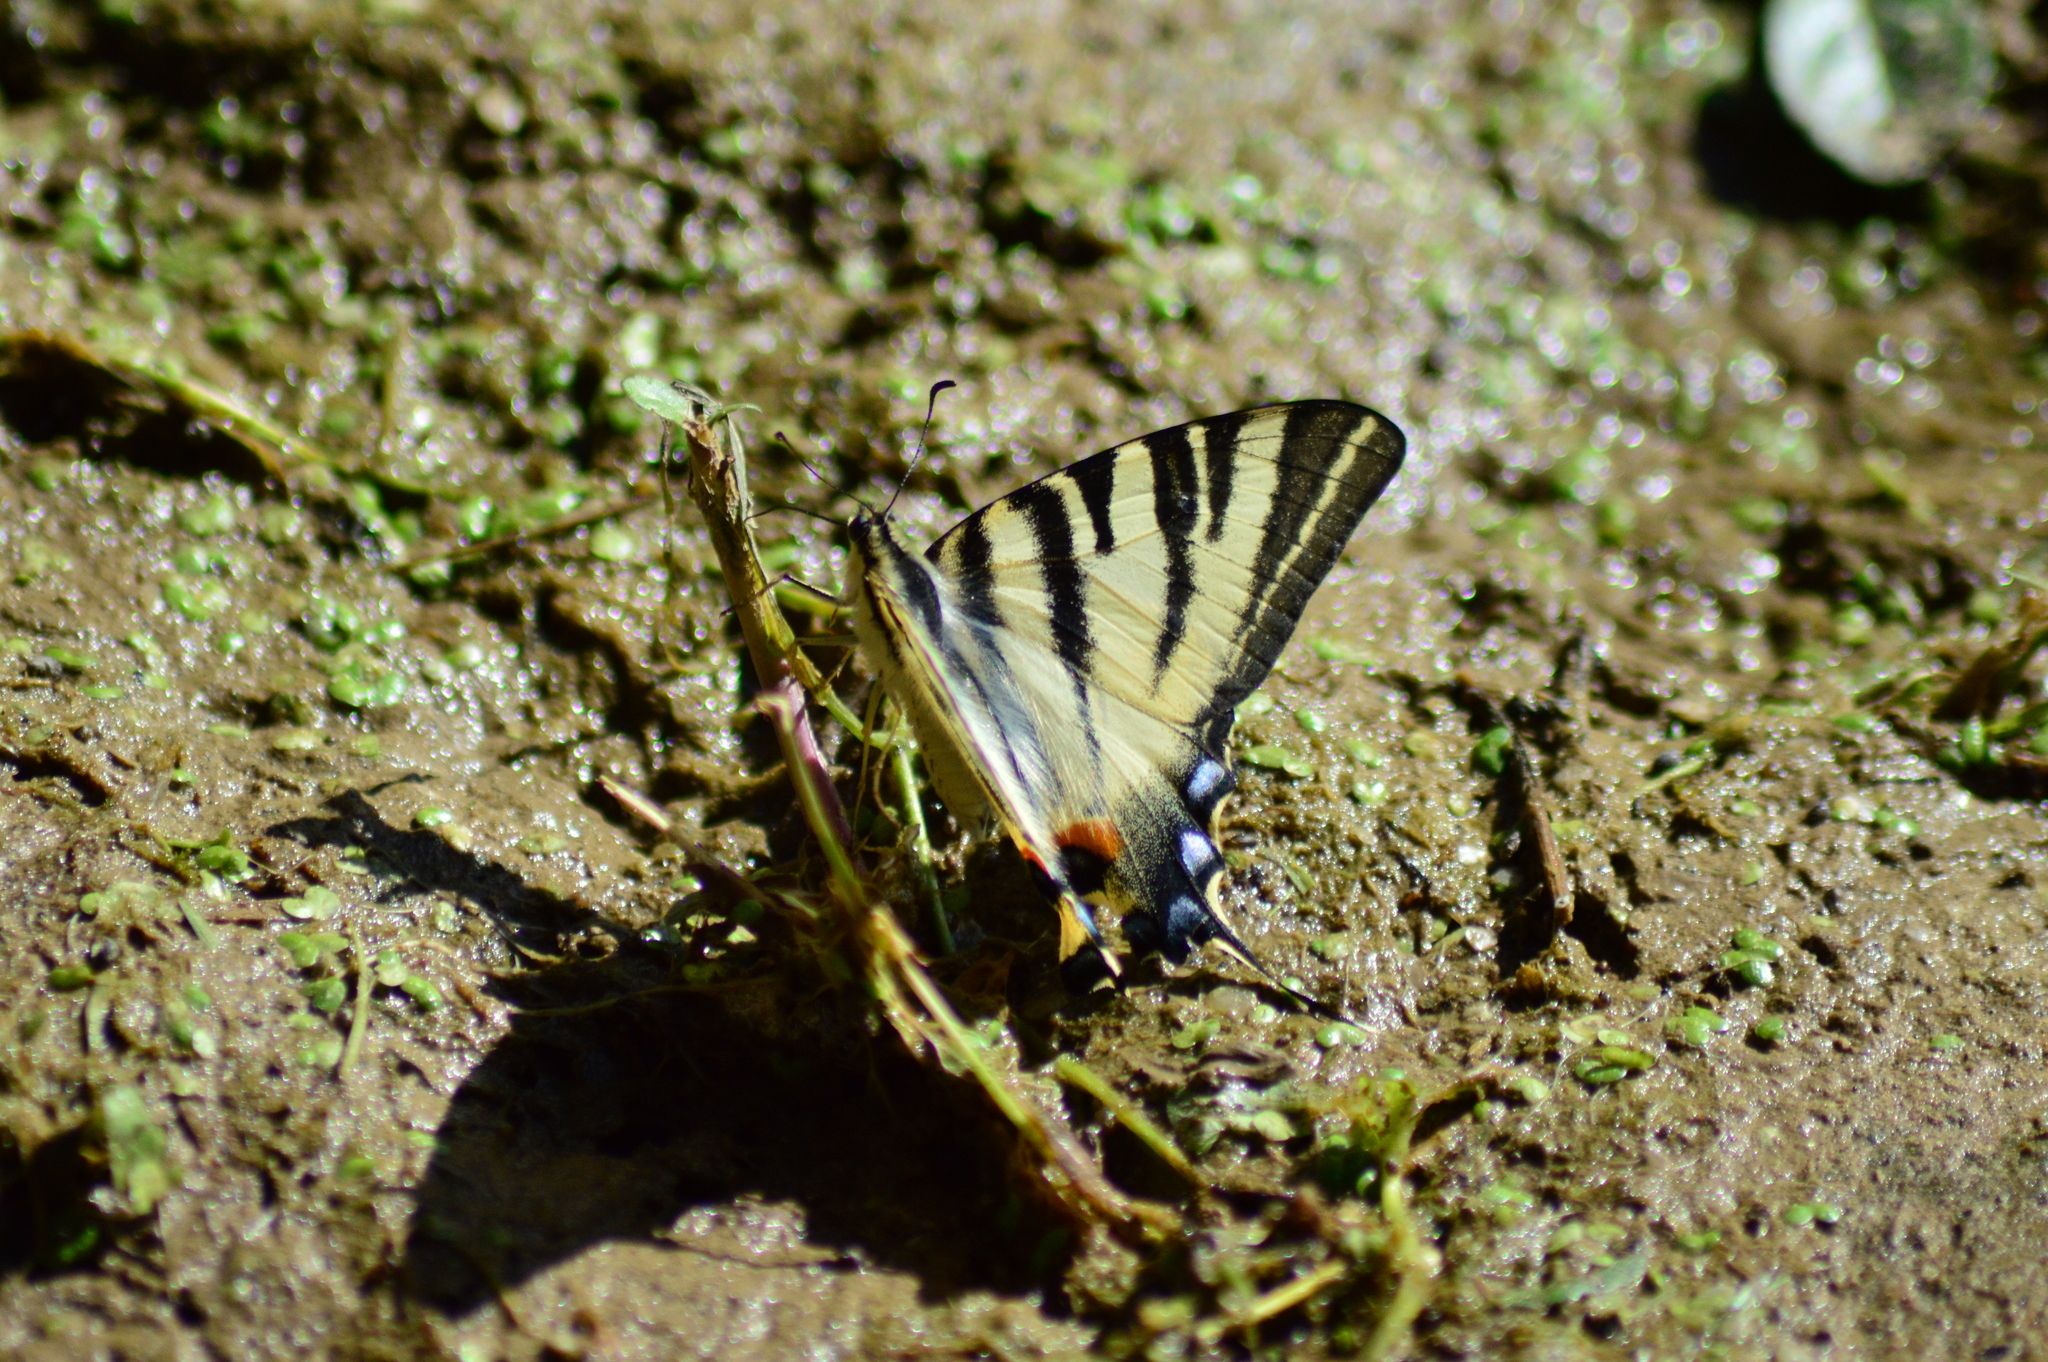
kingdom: Animalia
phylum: Arthropoda
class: Insecta
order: Lepidoptera
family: Papilionidae
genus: Iphiclides
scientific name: Iphiclides podalirius
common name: Scarce swallowtail
